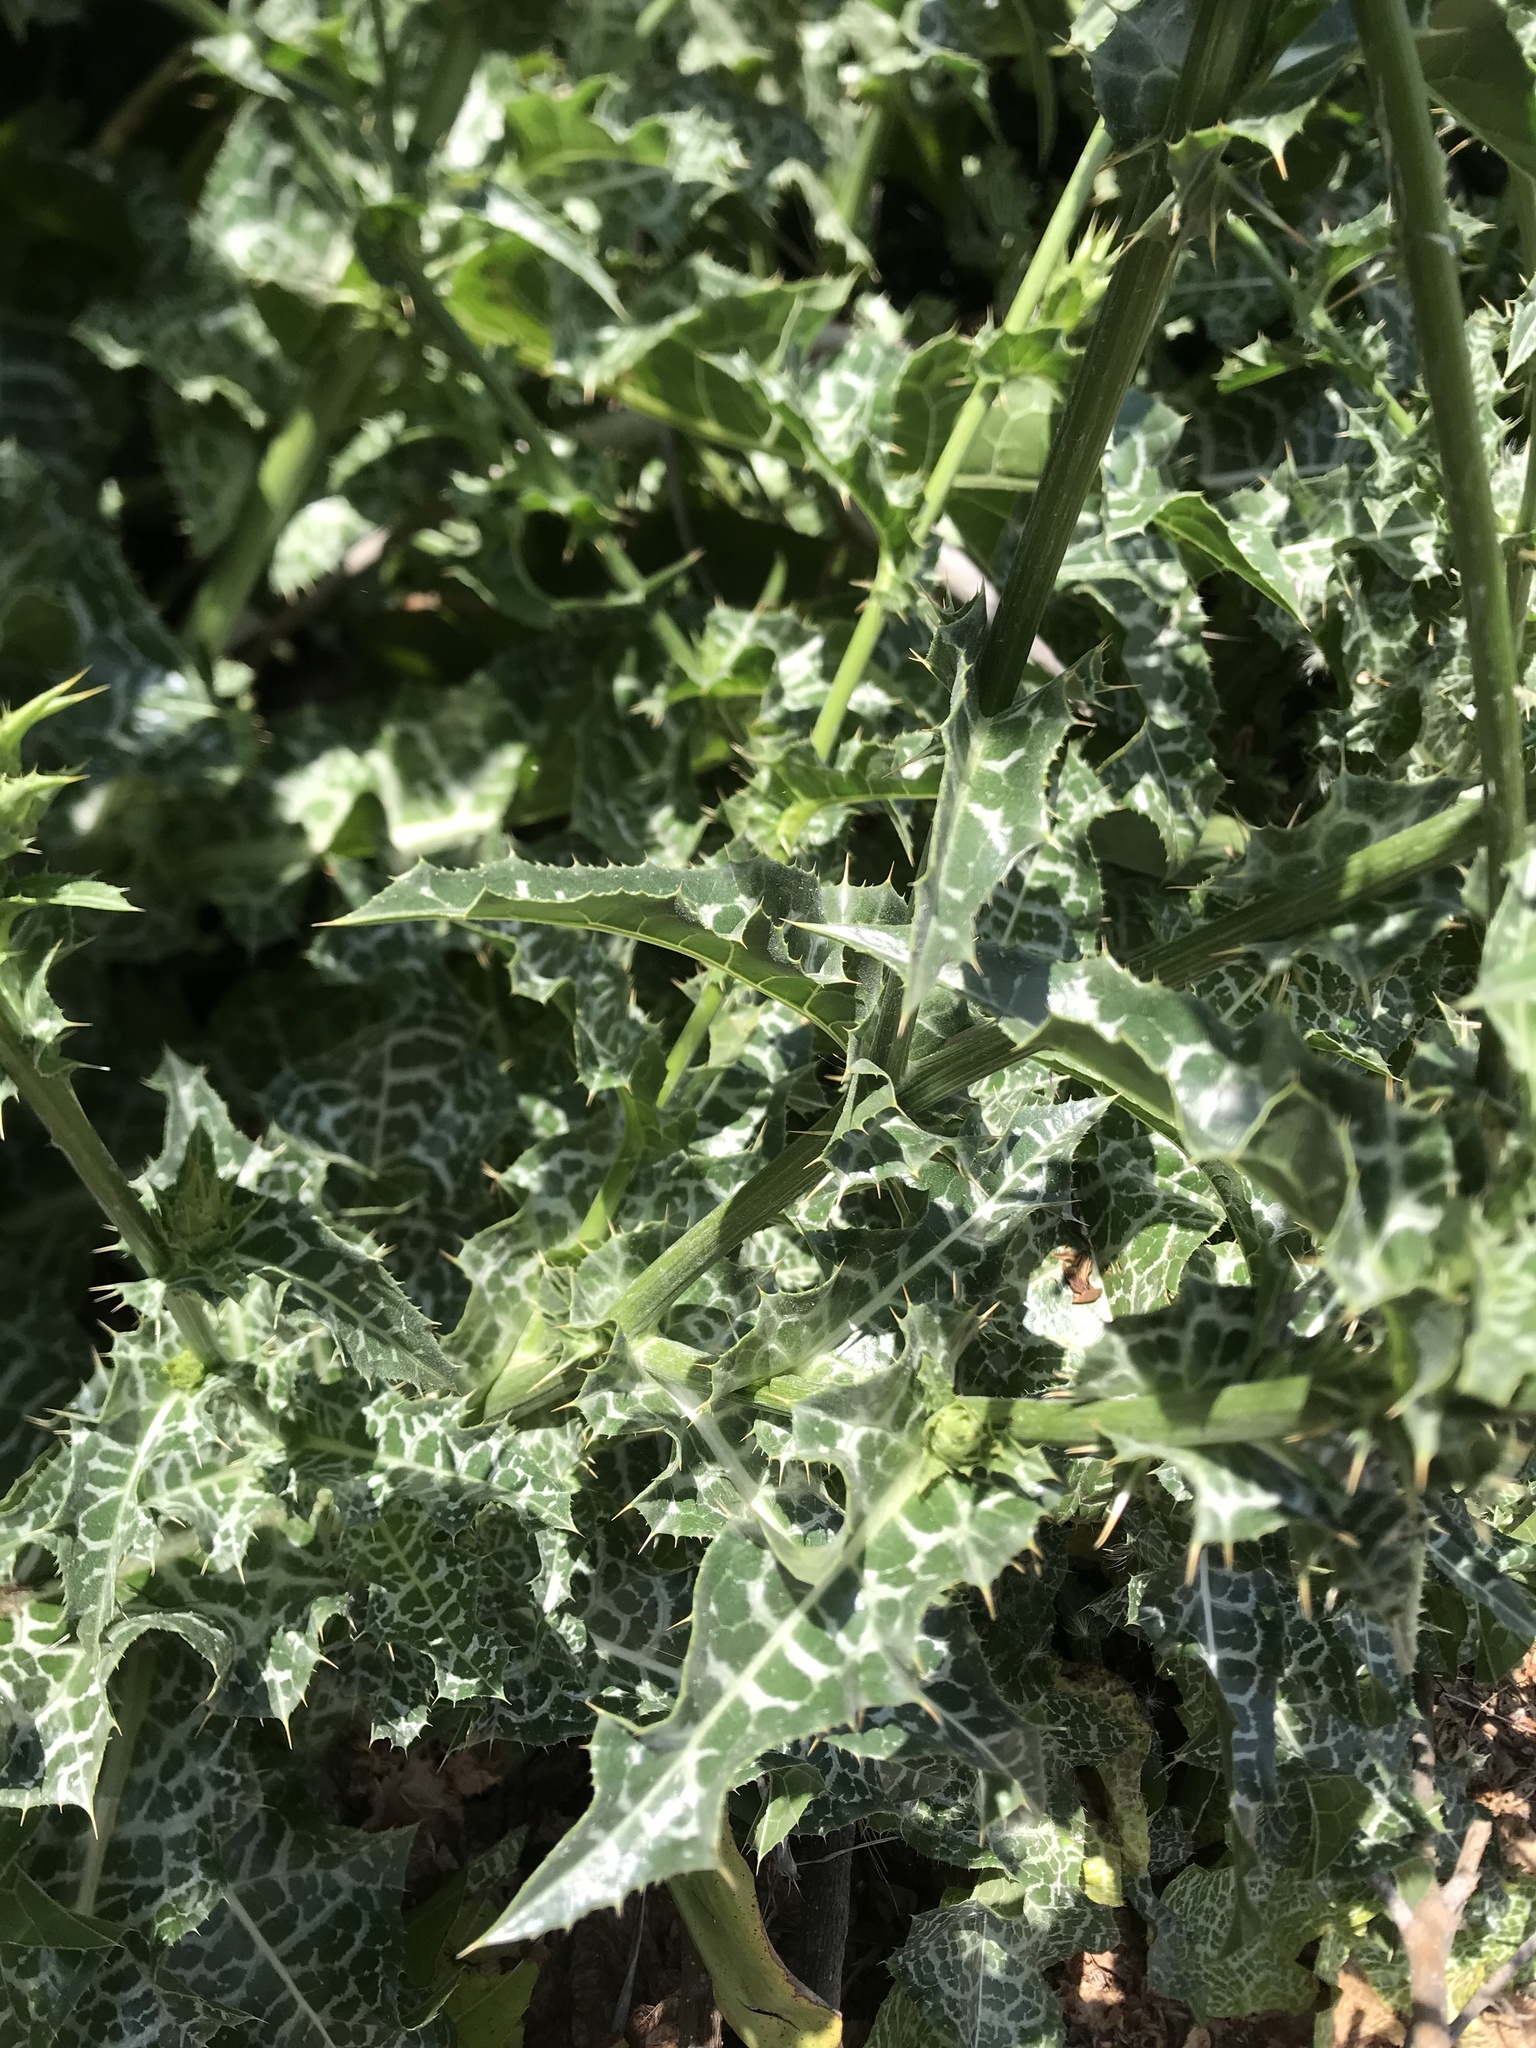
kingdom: Plantae
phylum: Tracheophyta
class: Magnoliopsida
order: Asterales
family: Asteraceae
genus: Silybum
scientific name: Silybum marianum
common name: Milk thistle
